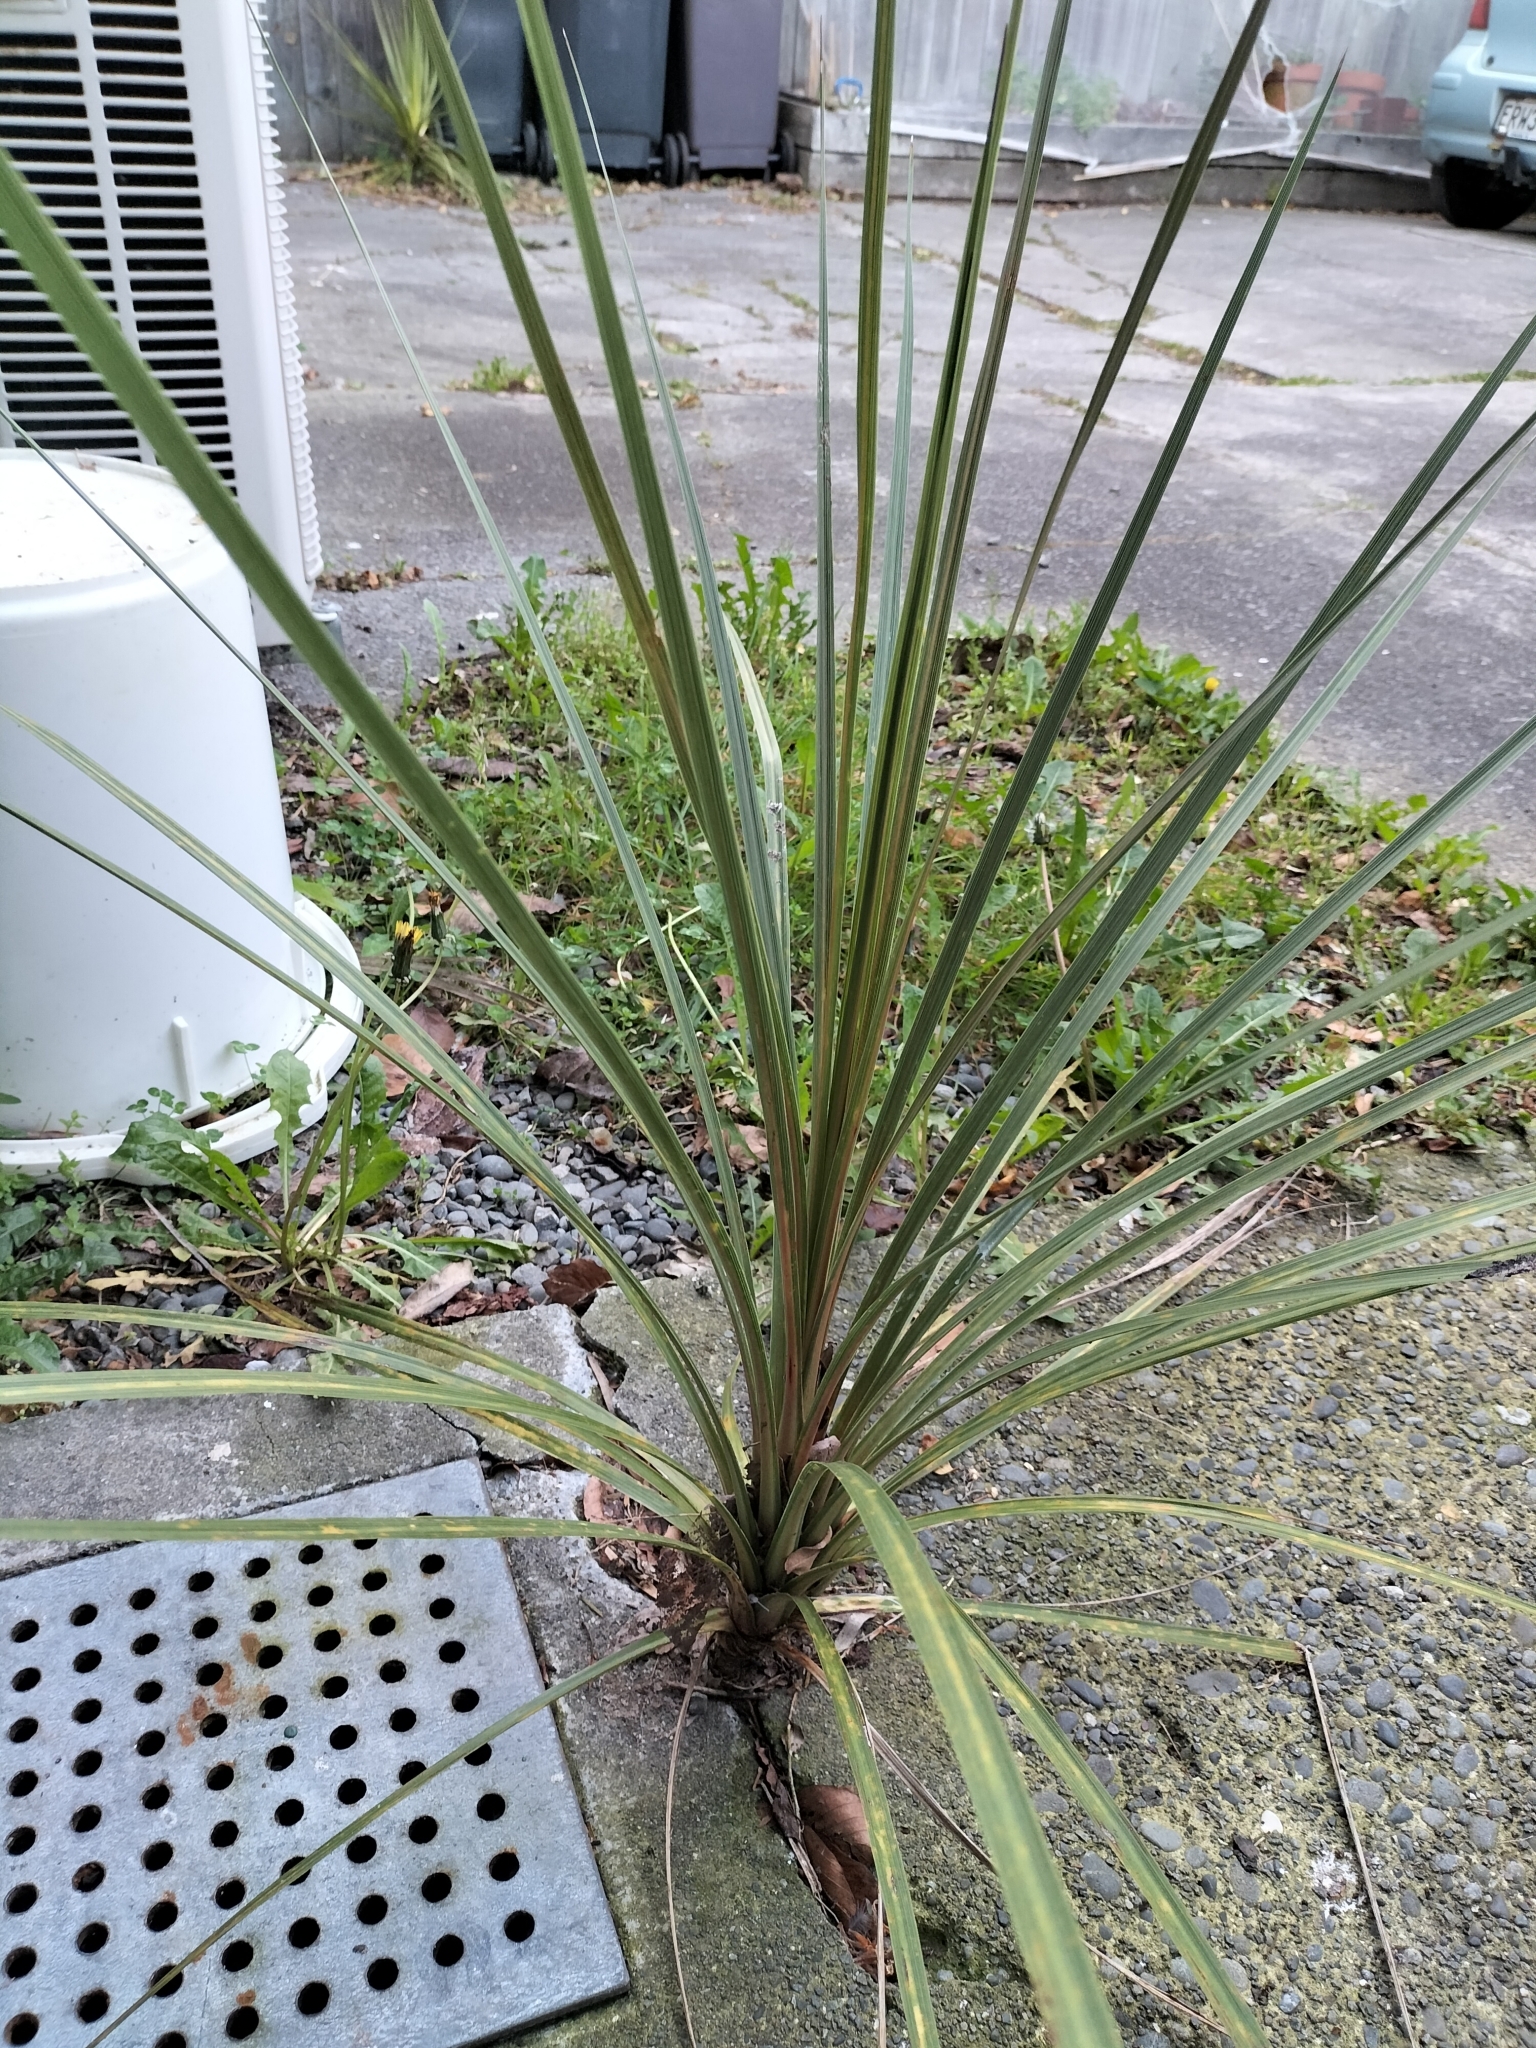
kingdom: Plantae
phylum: Tracheophyta
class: Liliopsida
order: Asparagales
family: Asparagaceae
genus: Cordyline
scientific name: Cordyline australis
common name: Cabbage-palm
